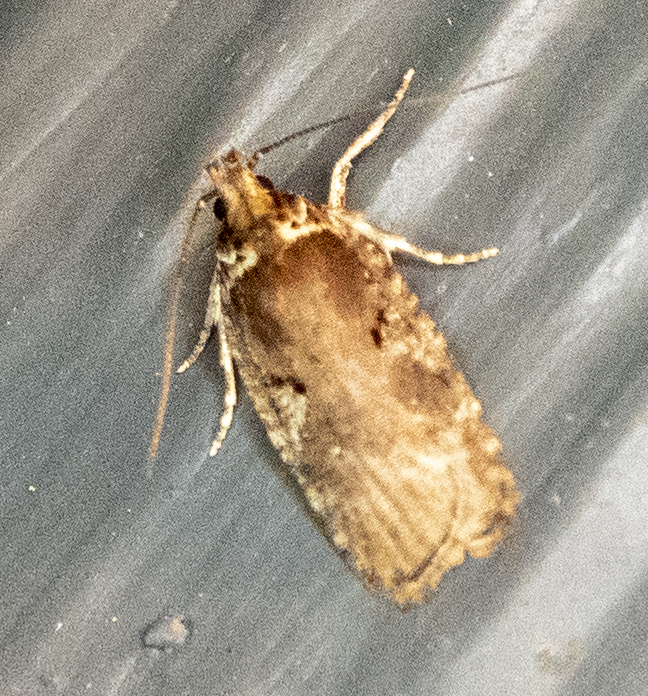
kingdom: Animalia
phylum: Arthropoda
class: Insecta
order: Lepidoptera
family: Depressariidae
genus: Agonopterix
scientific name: Agonopterix lythrella
